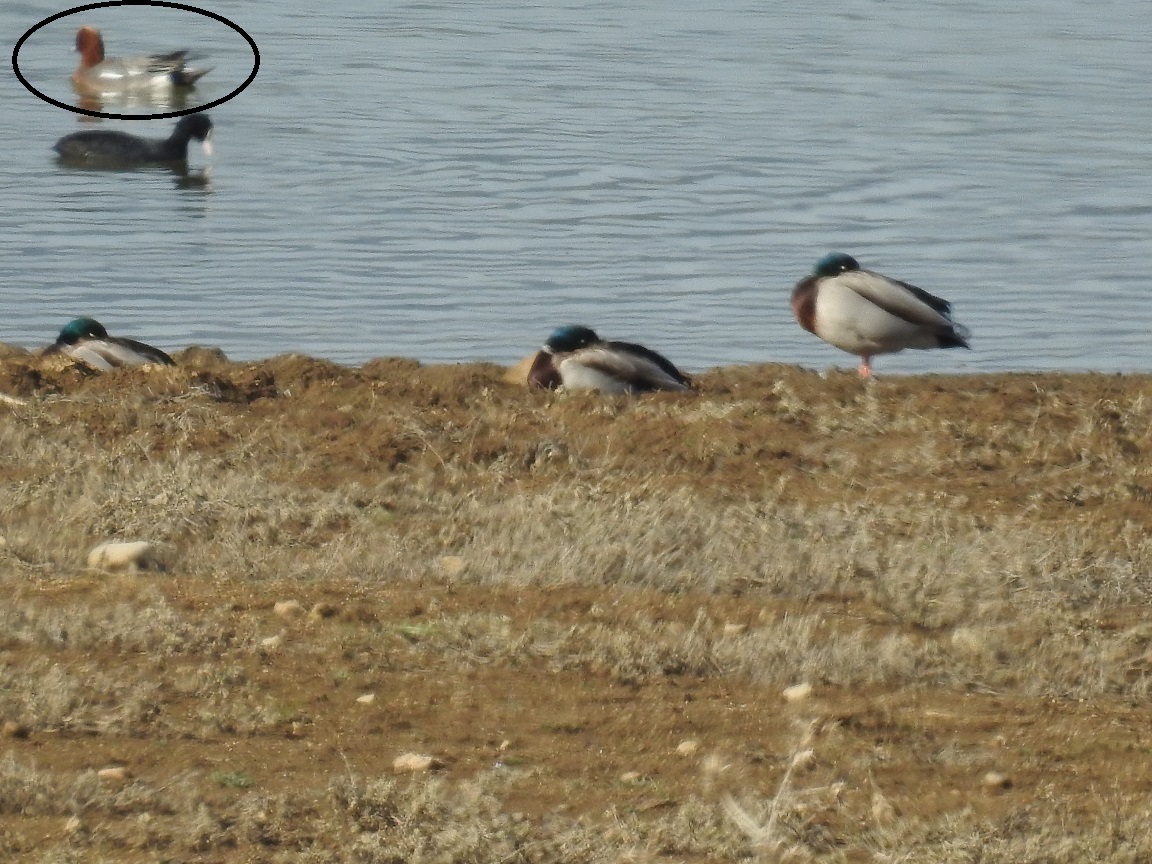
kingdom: Animalia
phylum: Chordata
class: Aves
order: Anseriformes
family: Anatidae
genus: Mareca
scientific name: Mareca penelope
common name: Eurasian wigeon
